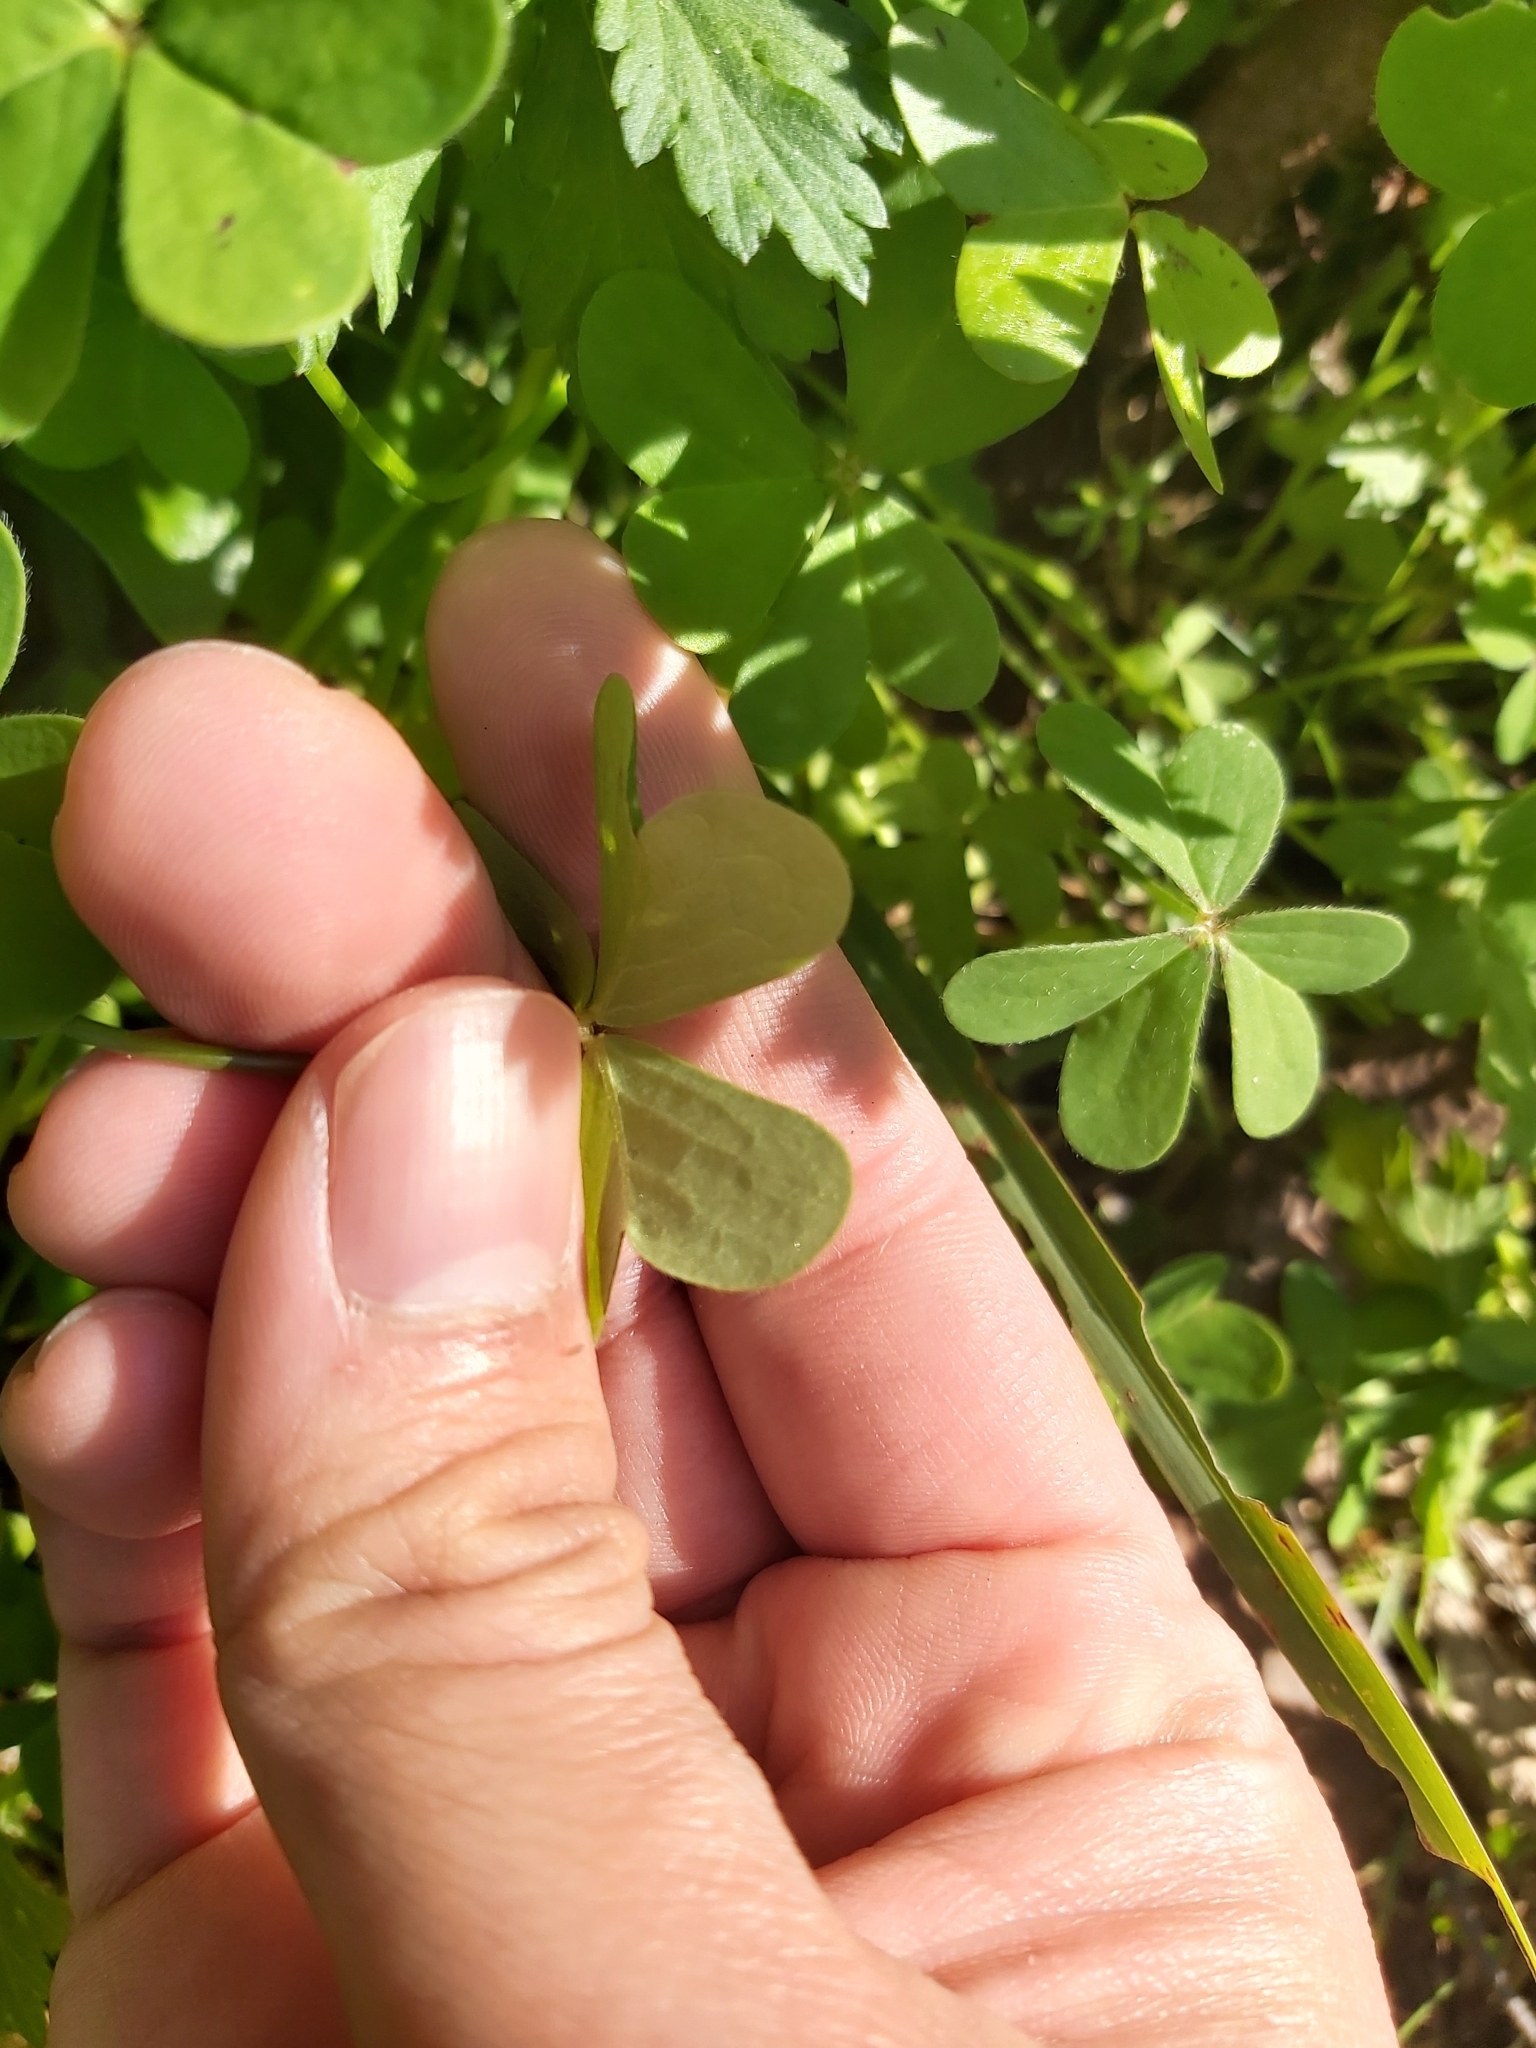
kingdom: Plantae
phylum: Tracheophyta
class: Magnoliopsida
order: Oxalidales
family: Oxalidaceae
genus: Oxalis
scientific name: Oxalis pes-caprae
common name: Bermuda-buttercup
